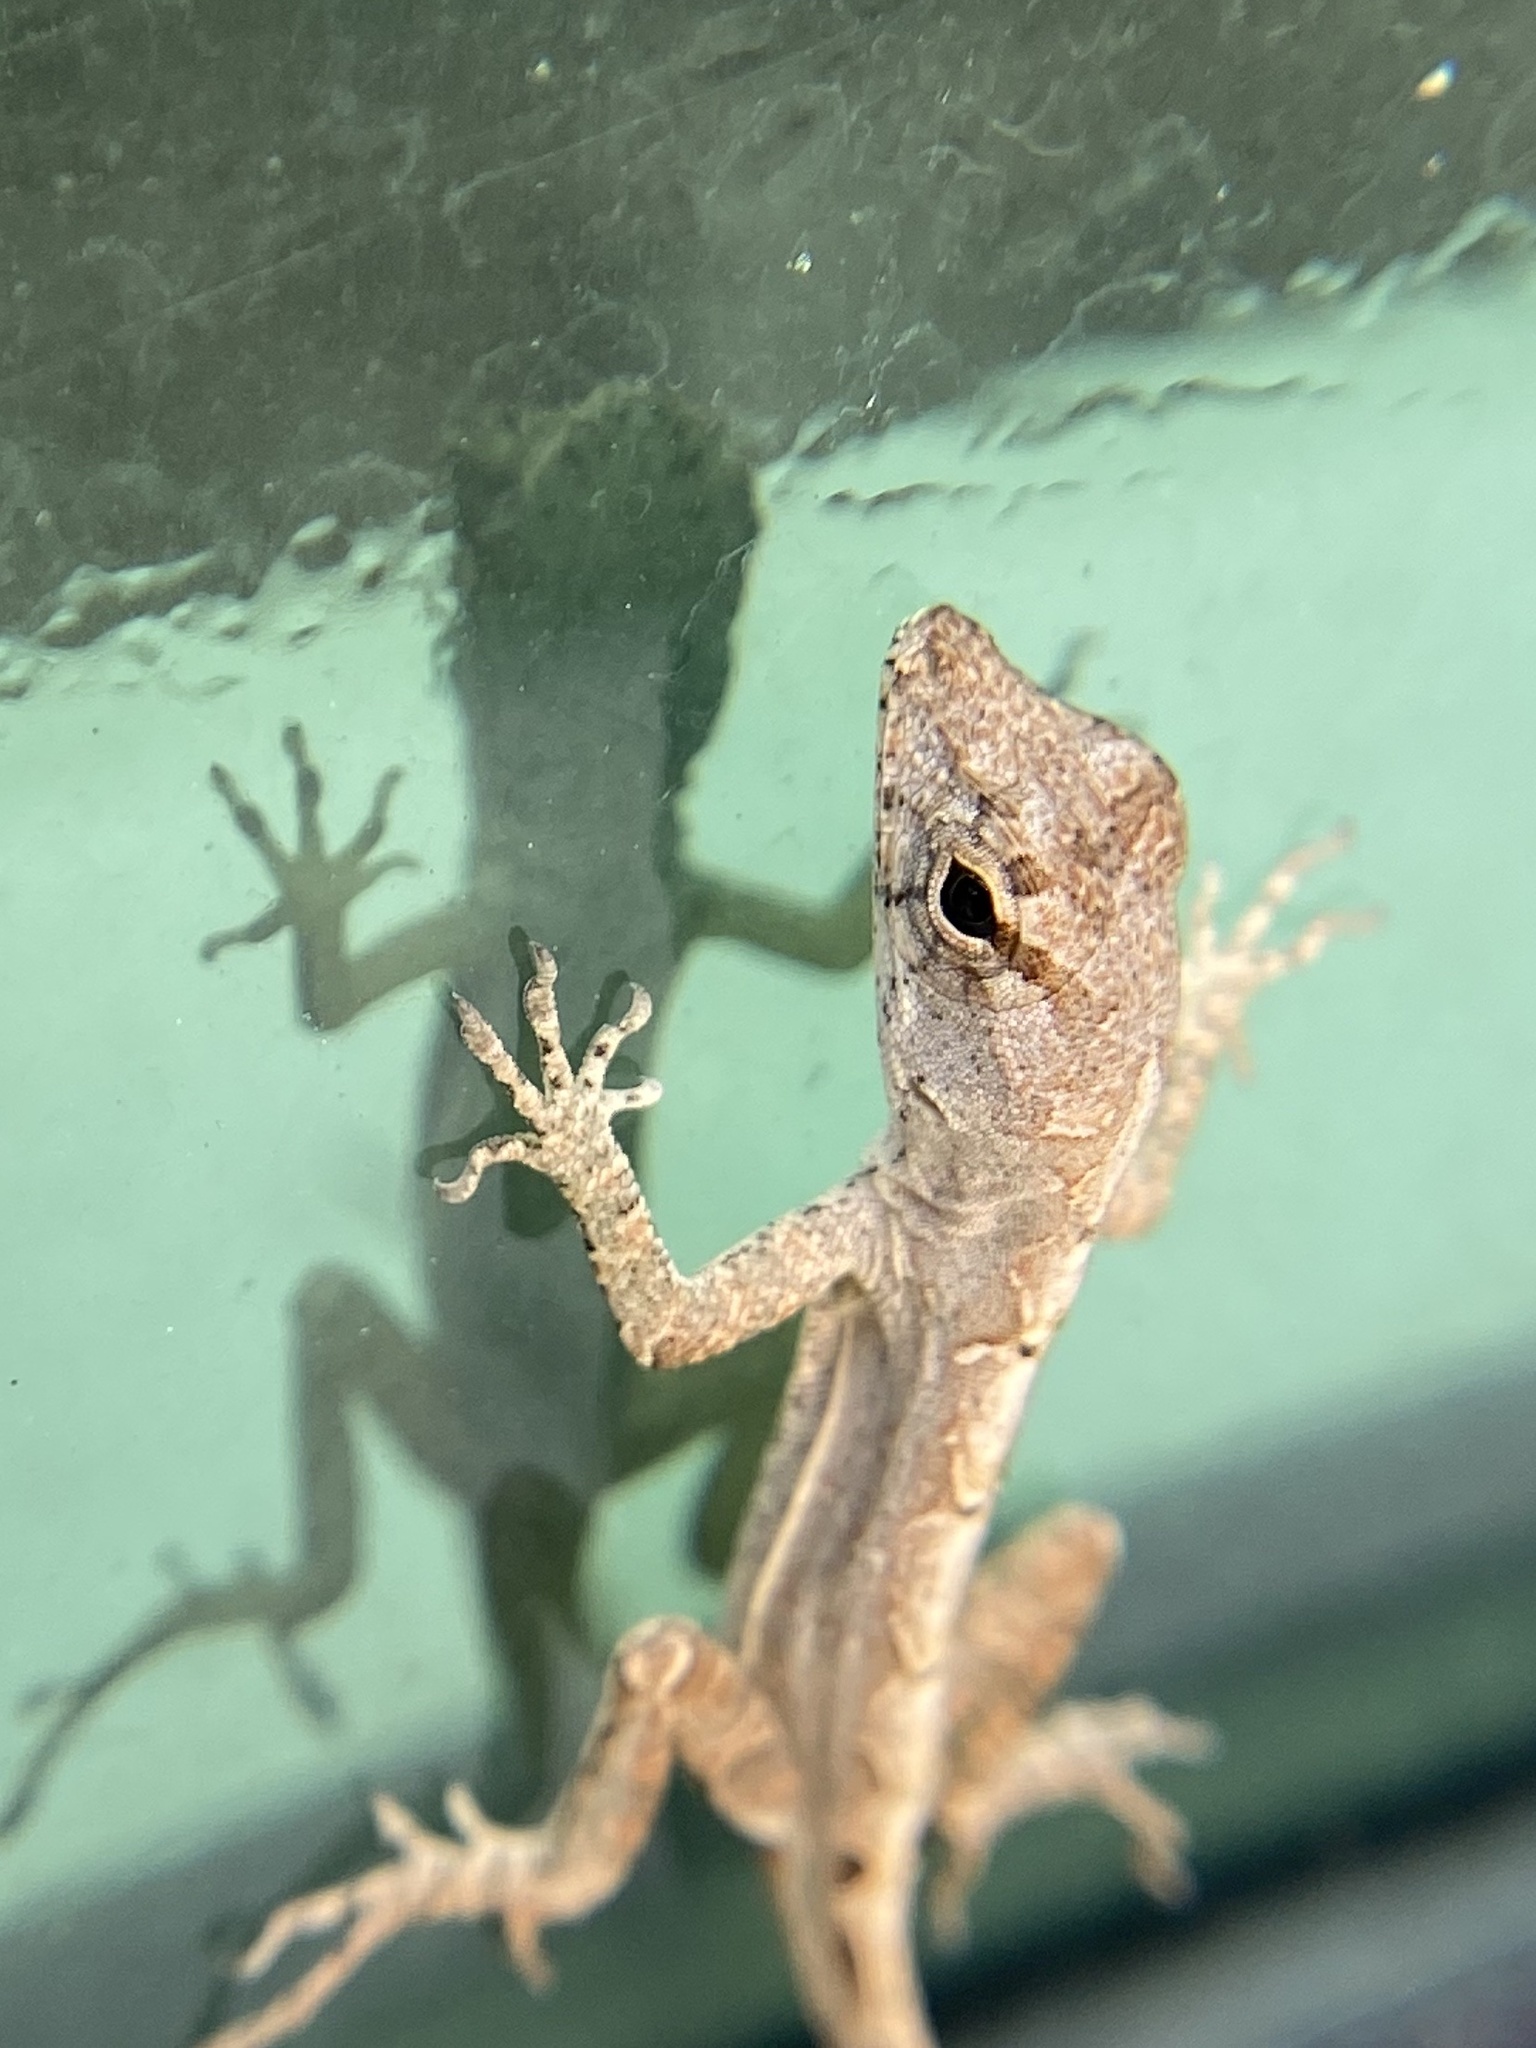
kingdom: Animalia
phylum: Chordata
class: Squamata
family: Dactyloidae
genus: Anolis
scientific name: Anolis sagrei
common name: Brown anole
